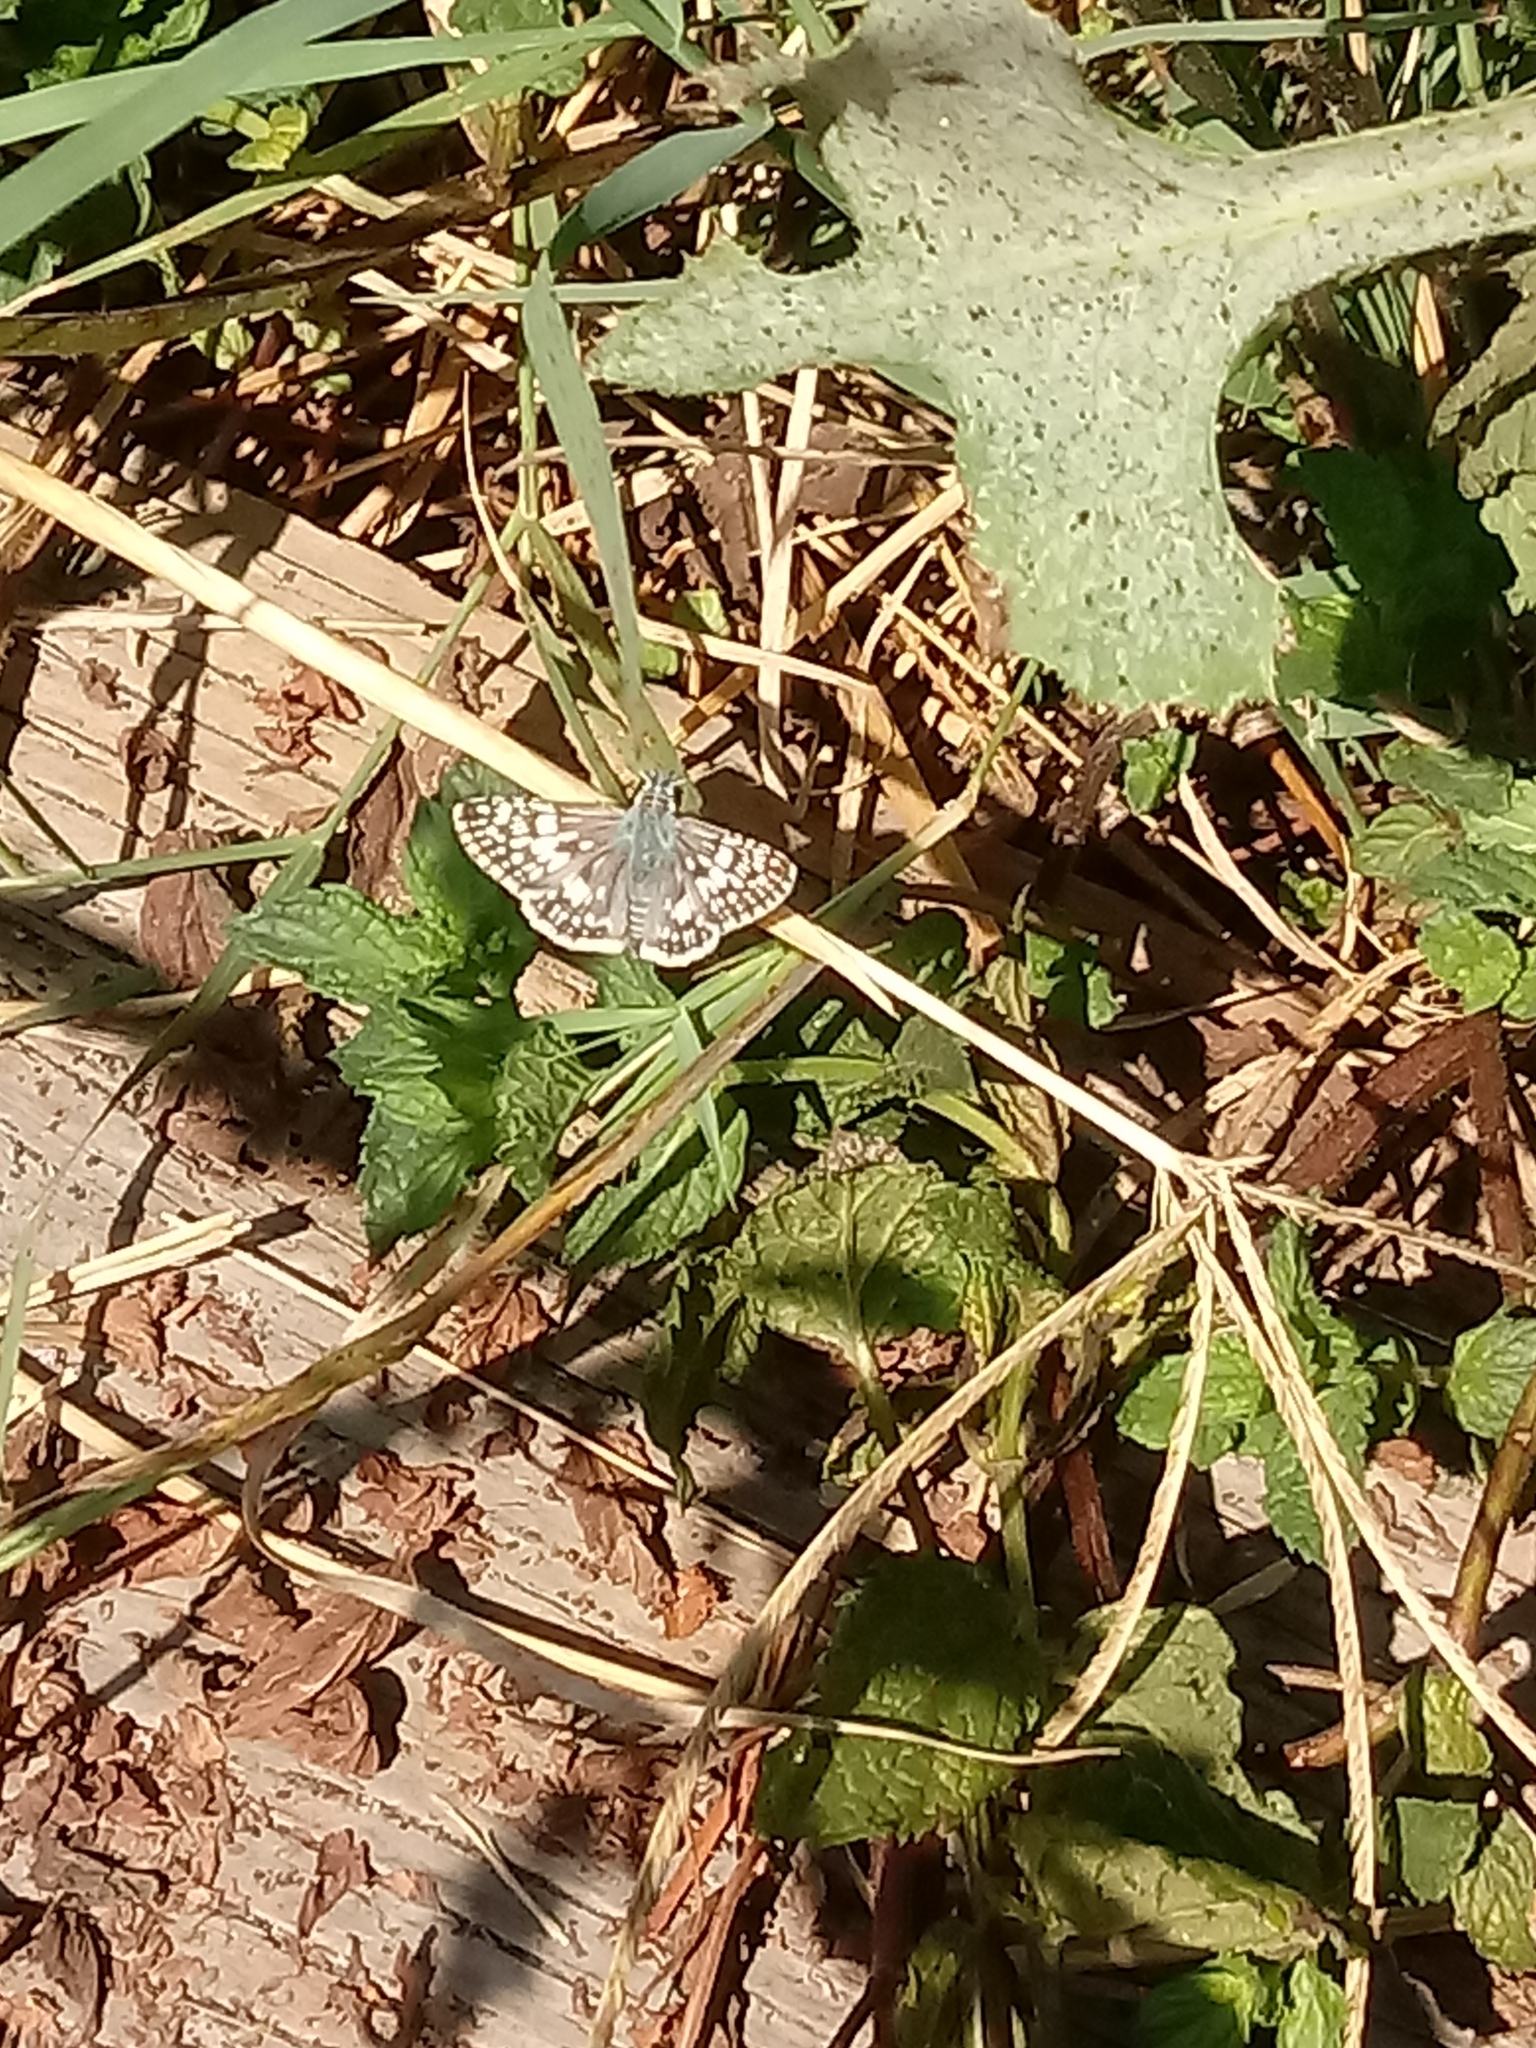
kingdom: Animalia
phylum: Arthropoda
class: Insecta
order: Lepidoptera
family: Hesperiidae
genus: Burnsius
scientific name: Burnsius albezens
